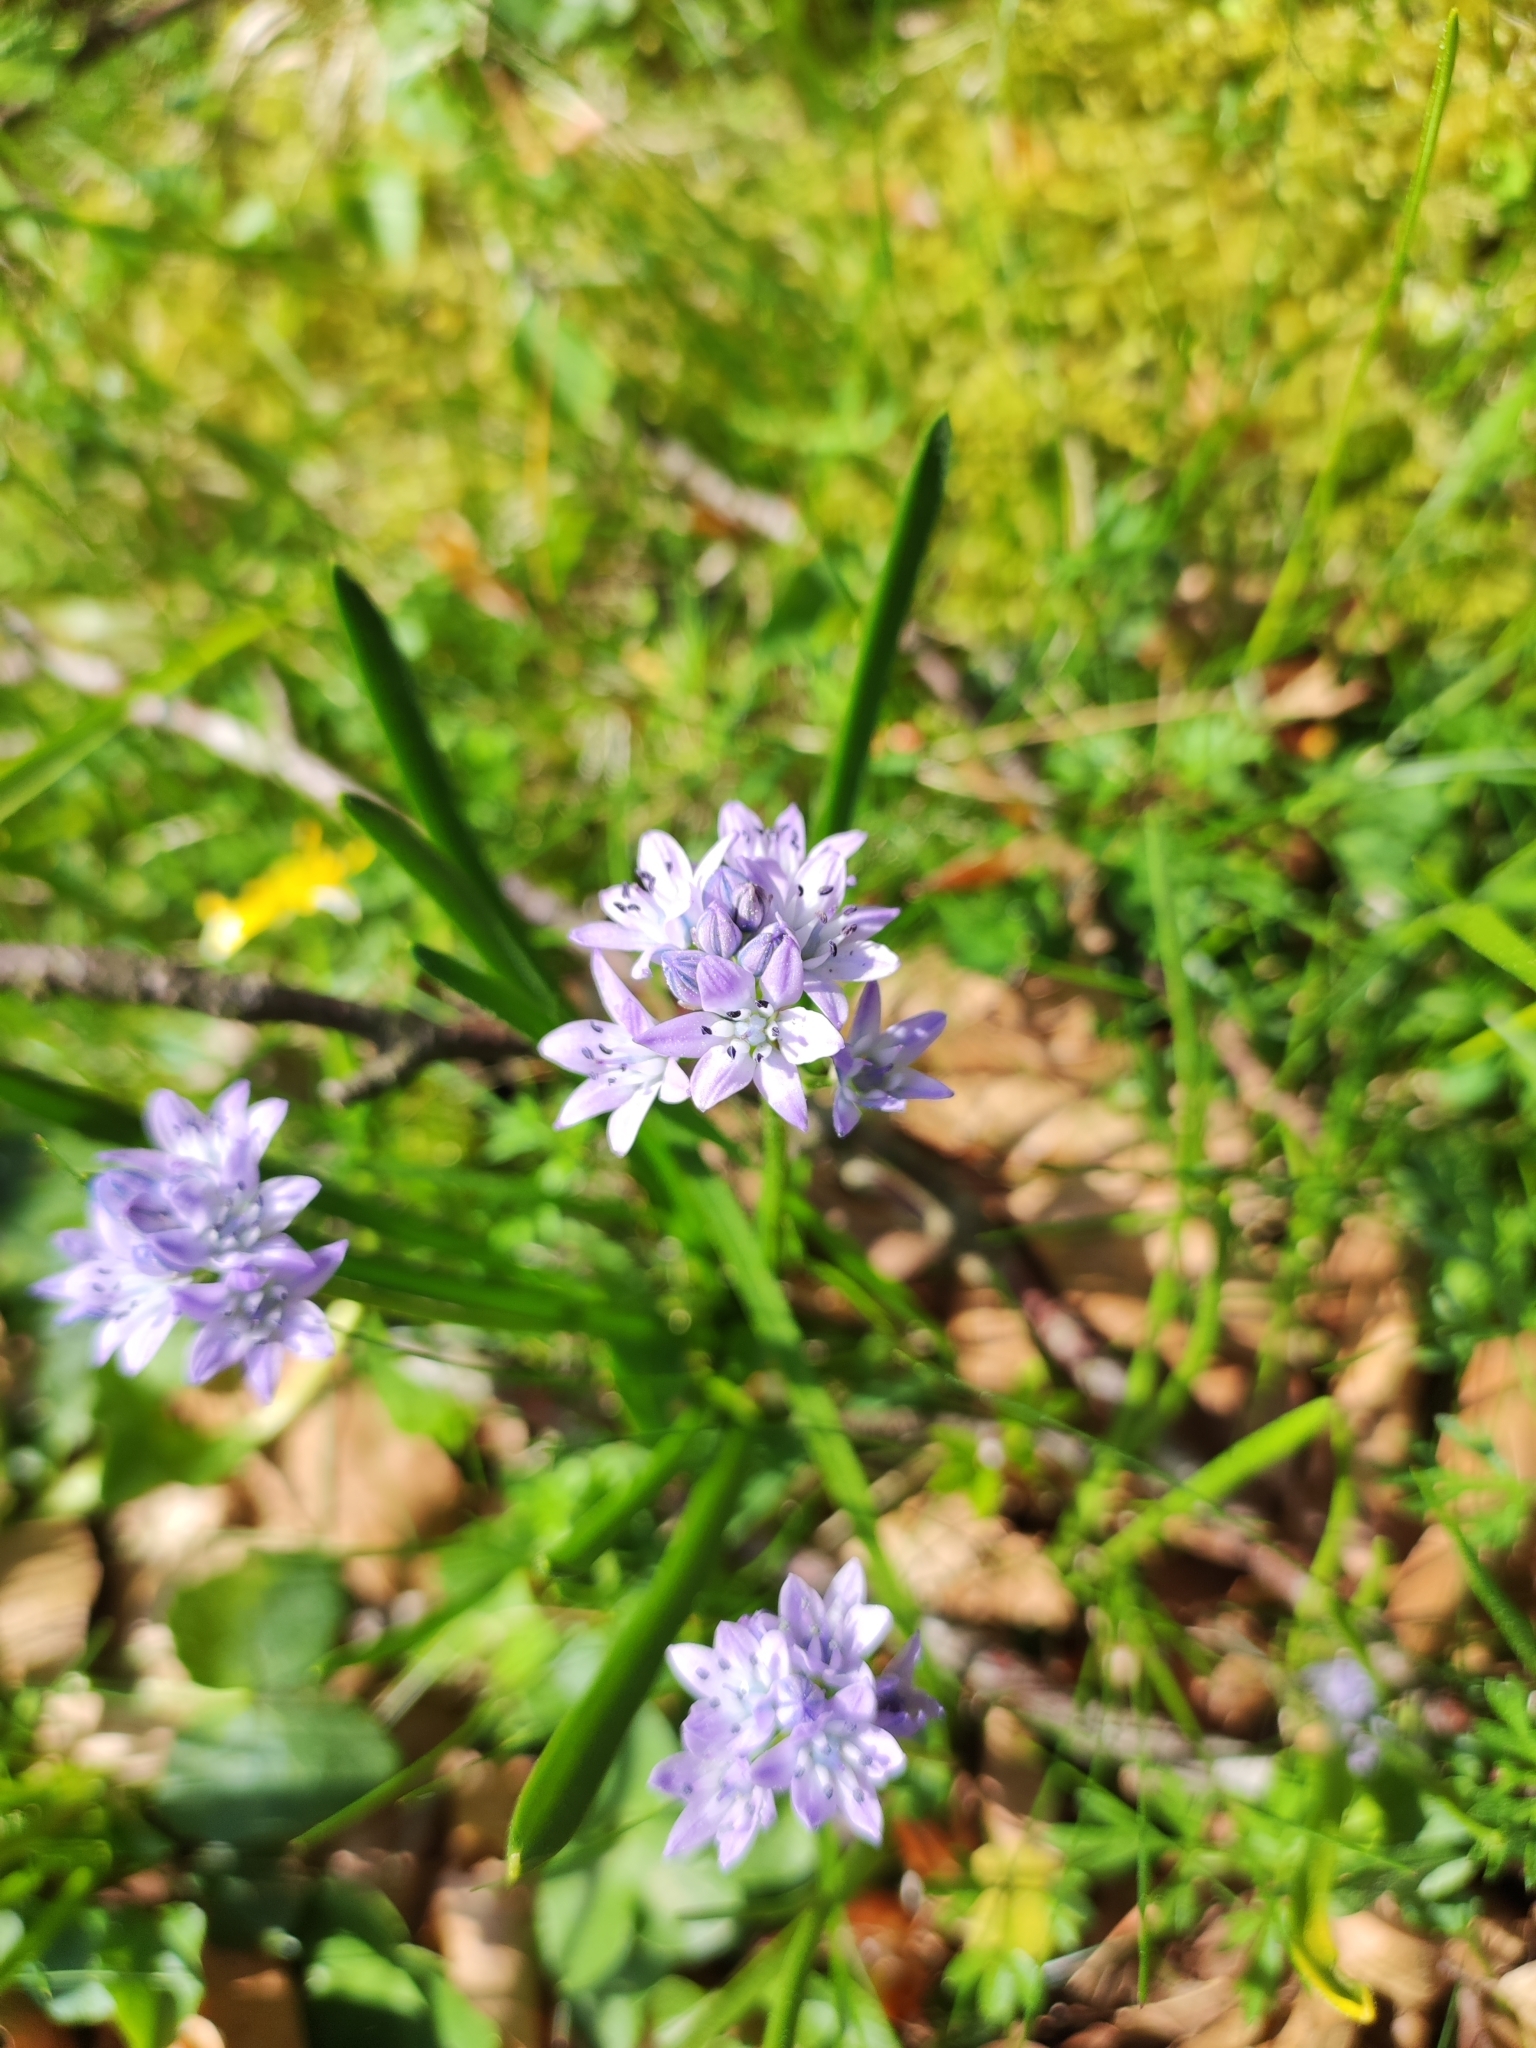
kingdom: Plantae
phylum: Tracheophyta
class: Liliopsida
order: Asparagales
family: Asparagaceae
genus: Scilla
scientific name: Scilla verna
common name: Spring squill
